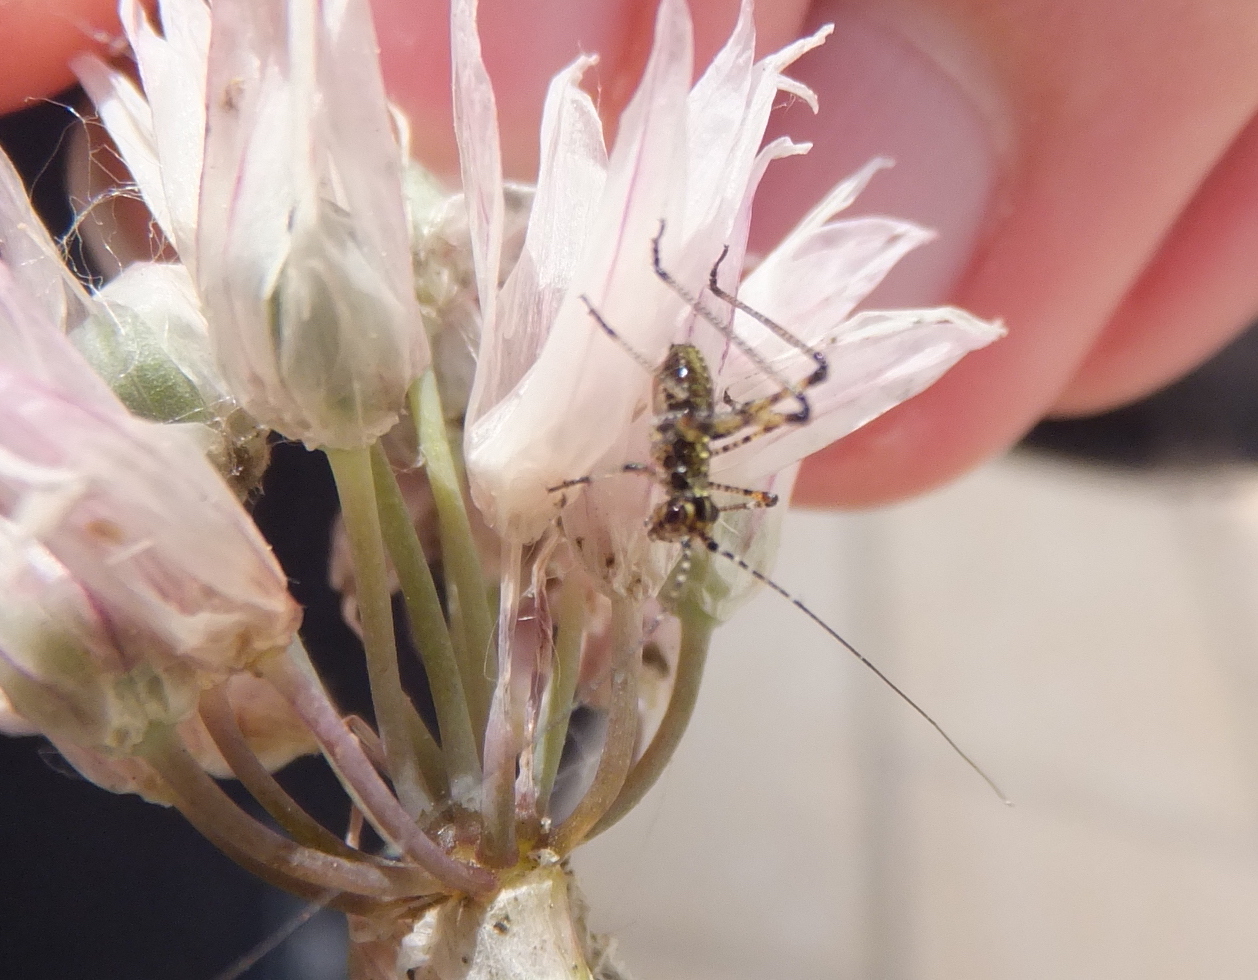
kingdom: Animalia
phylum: Arthropoda
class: Insecta
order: Orthoptera
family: Tettigoniidae
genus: Phaneroptera
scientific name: Phaneroptera nana
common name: Southern sickle bush-cricket
